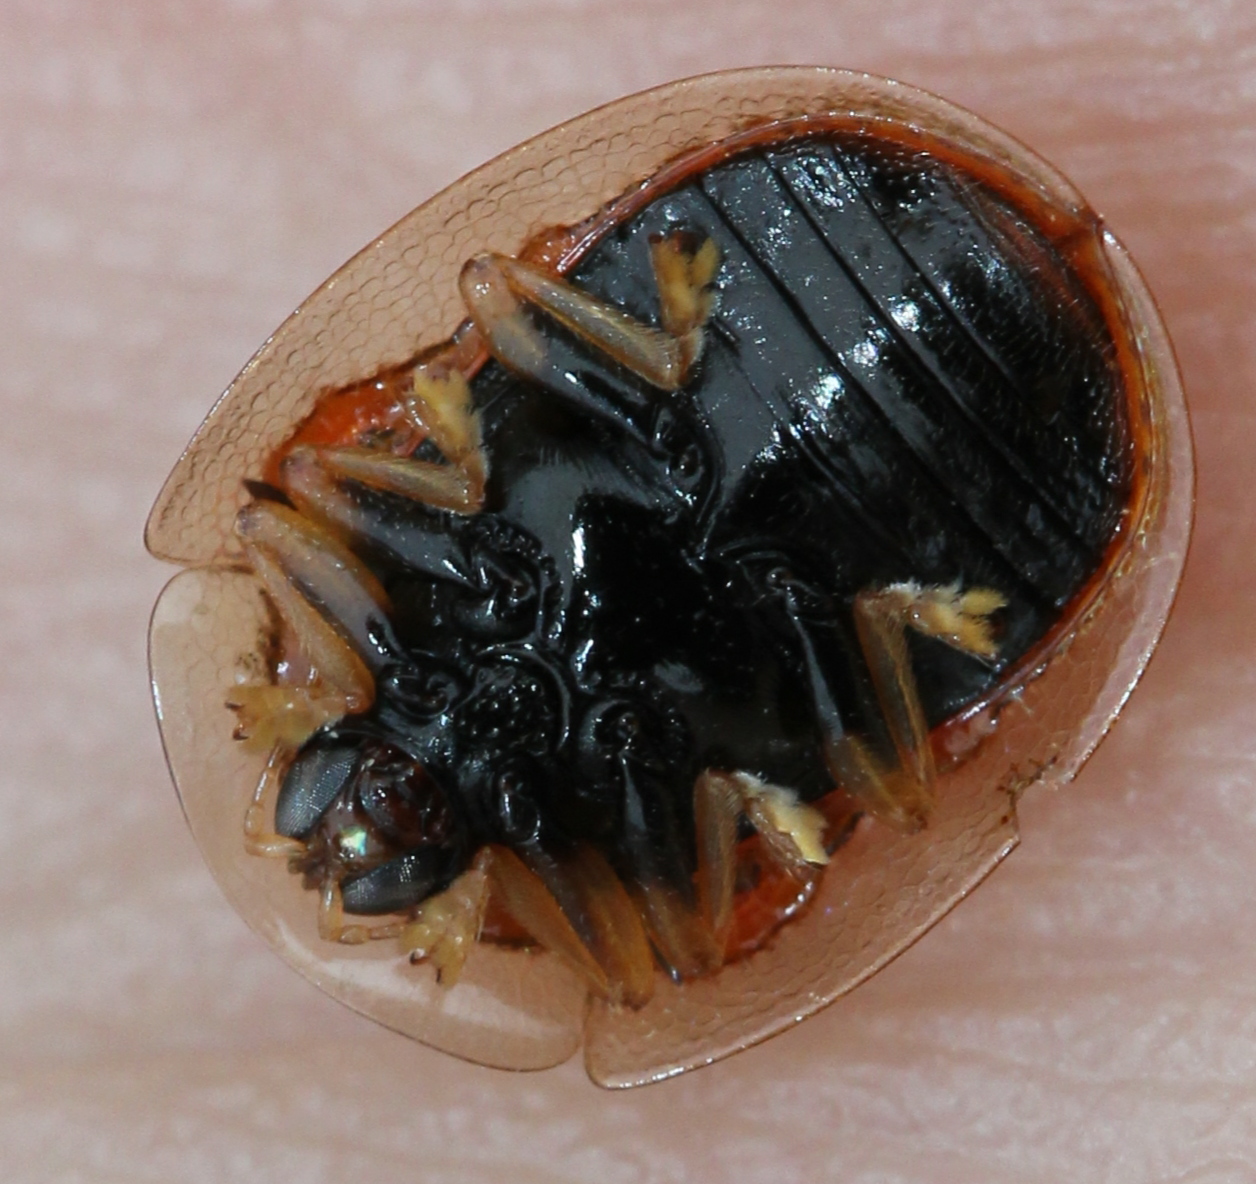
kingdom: Animalia
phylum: Arthropoda
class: Insecta
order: Coleoptera
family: Chrysomelidae
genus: Charidotella
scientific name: Charidotella sexpunctata
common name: Golden tortoise beetle
